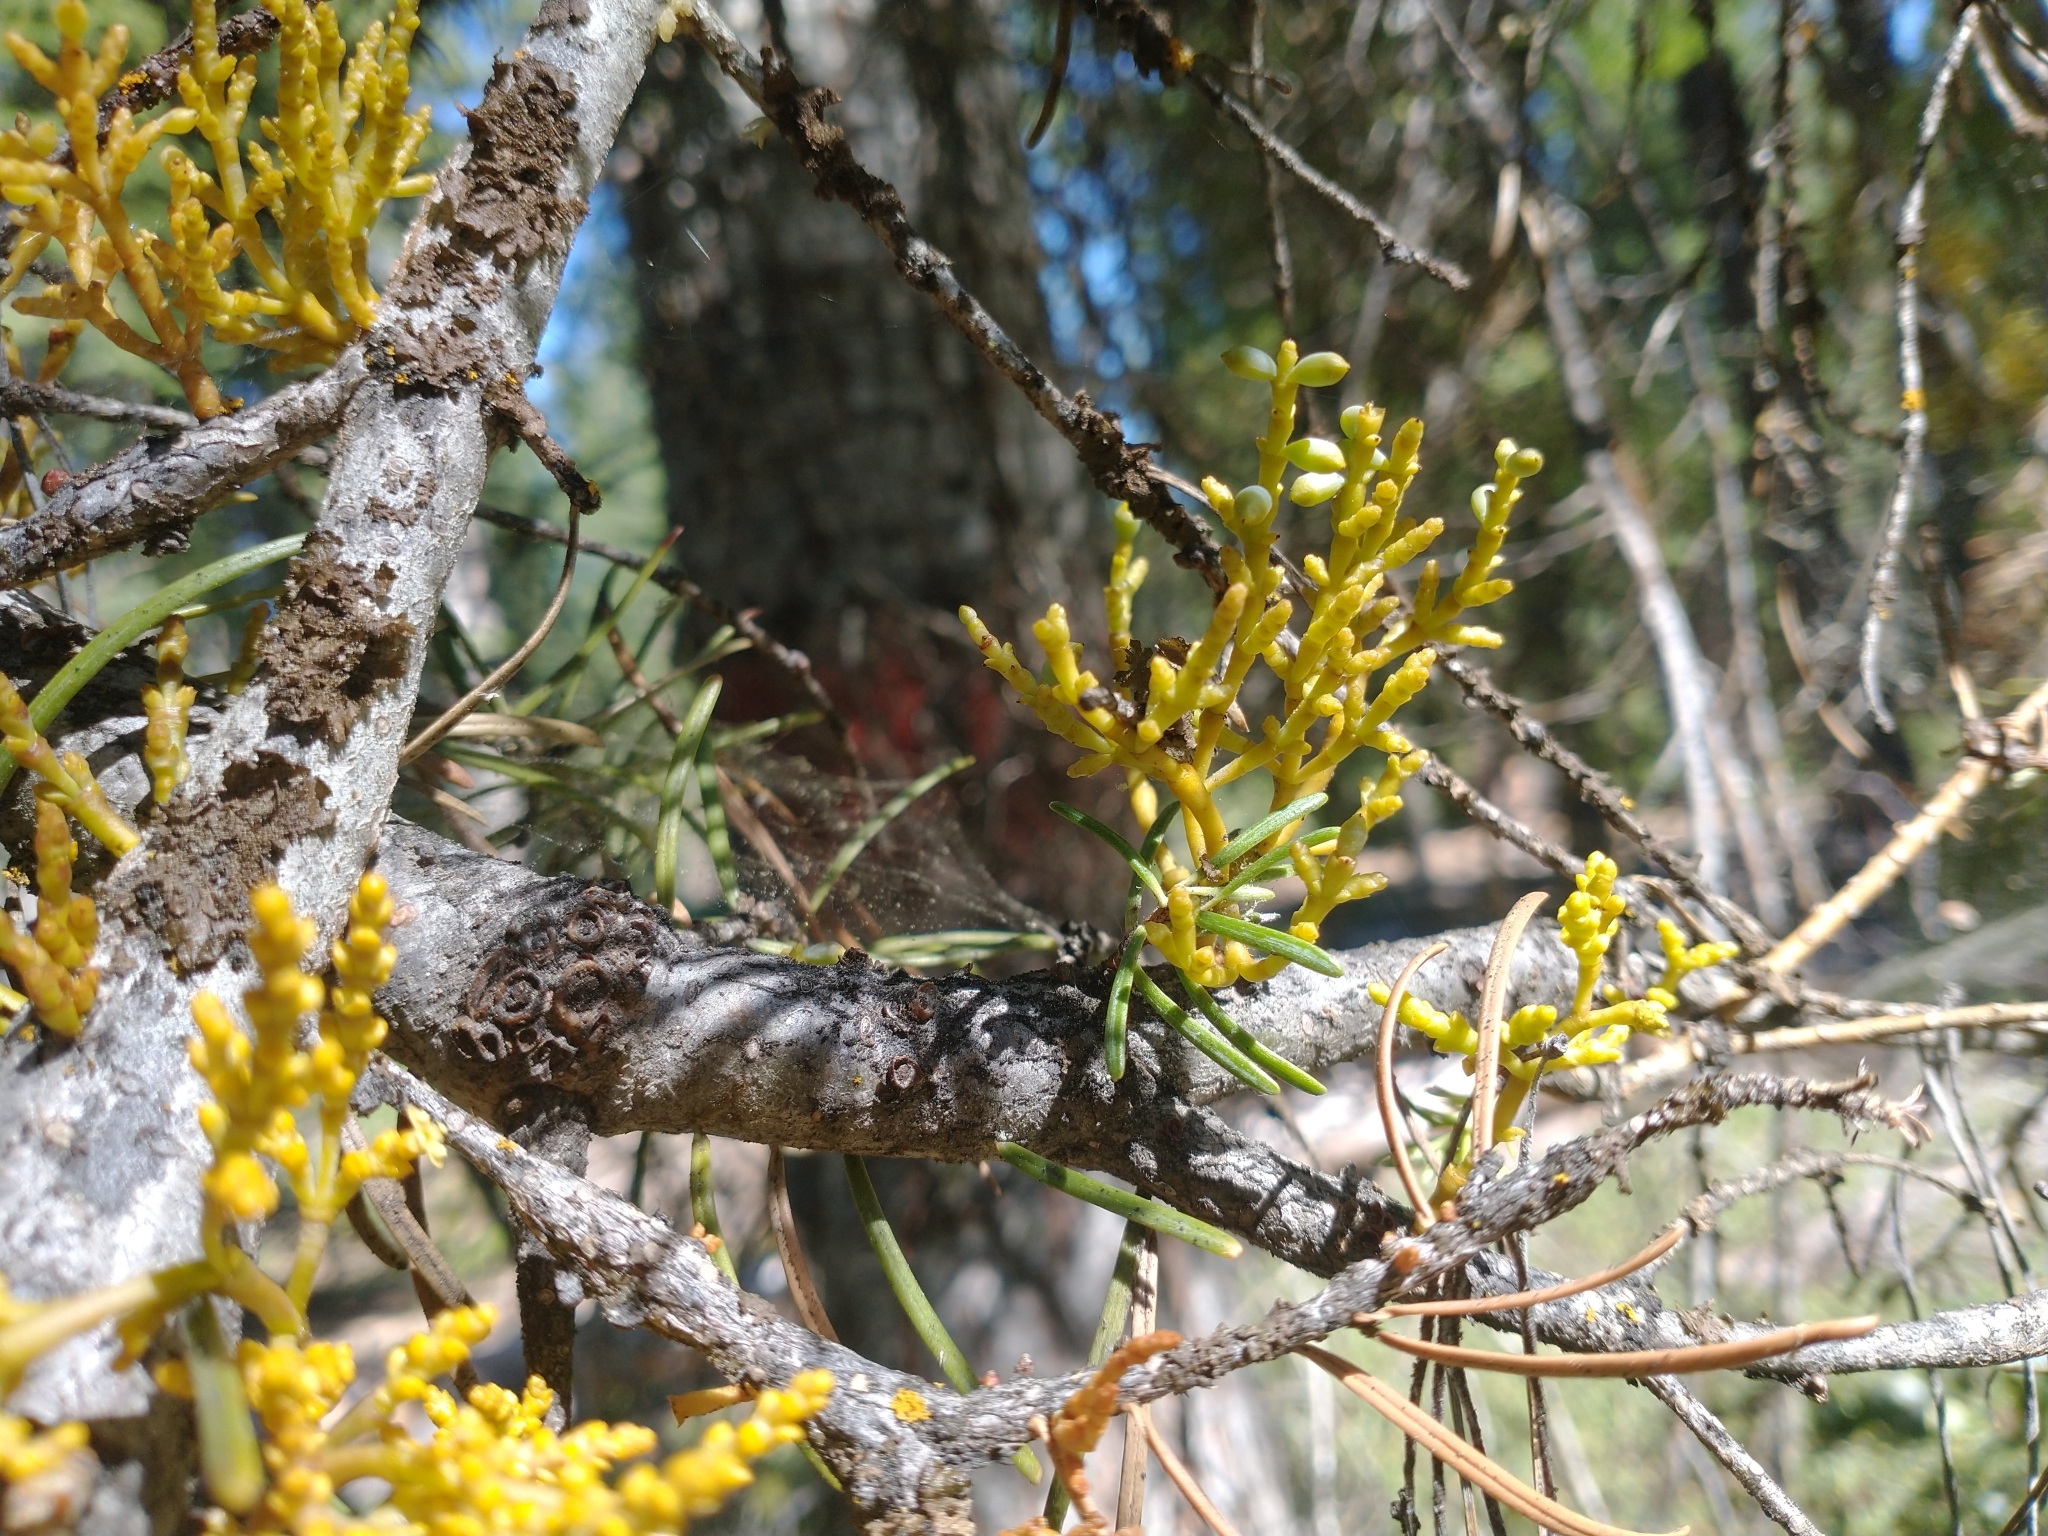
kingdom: Plantae
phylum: Tracheophyta
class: Magnoliopsida
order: Santalales
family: Viscaceae
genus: Arceuthobium
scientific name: Arceuthobium abietinum
